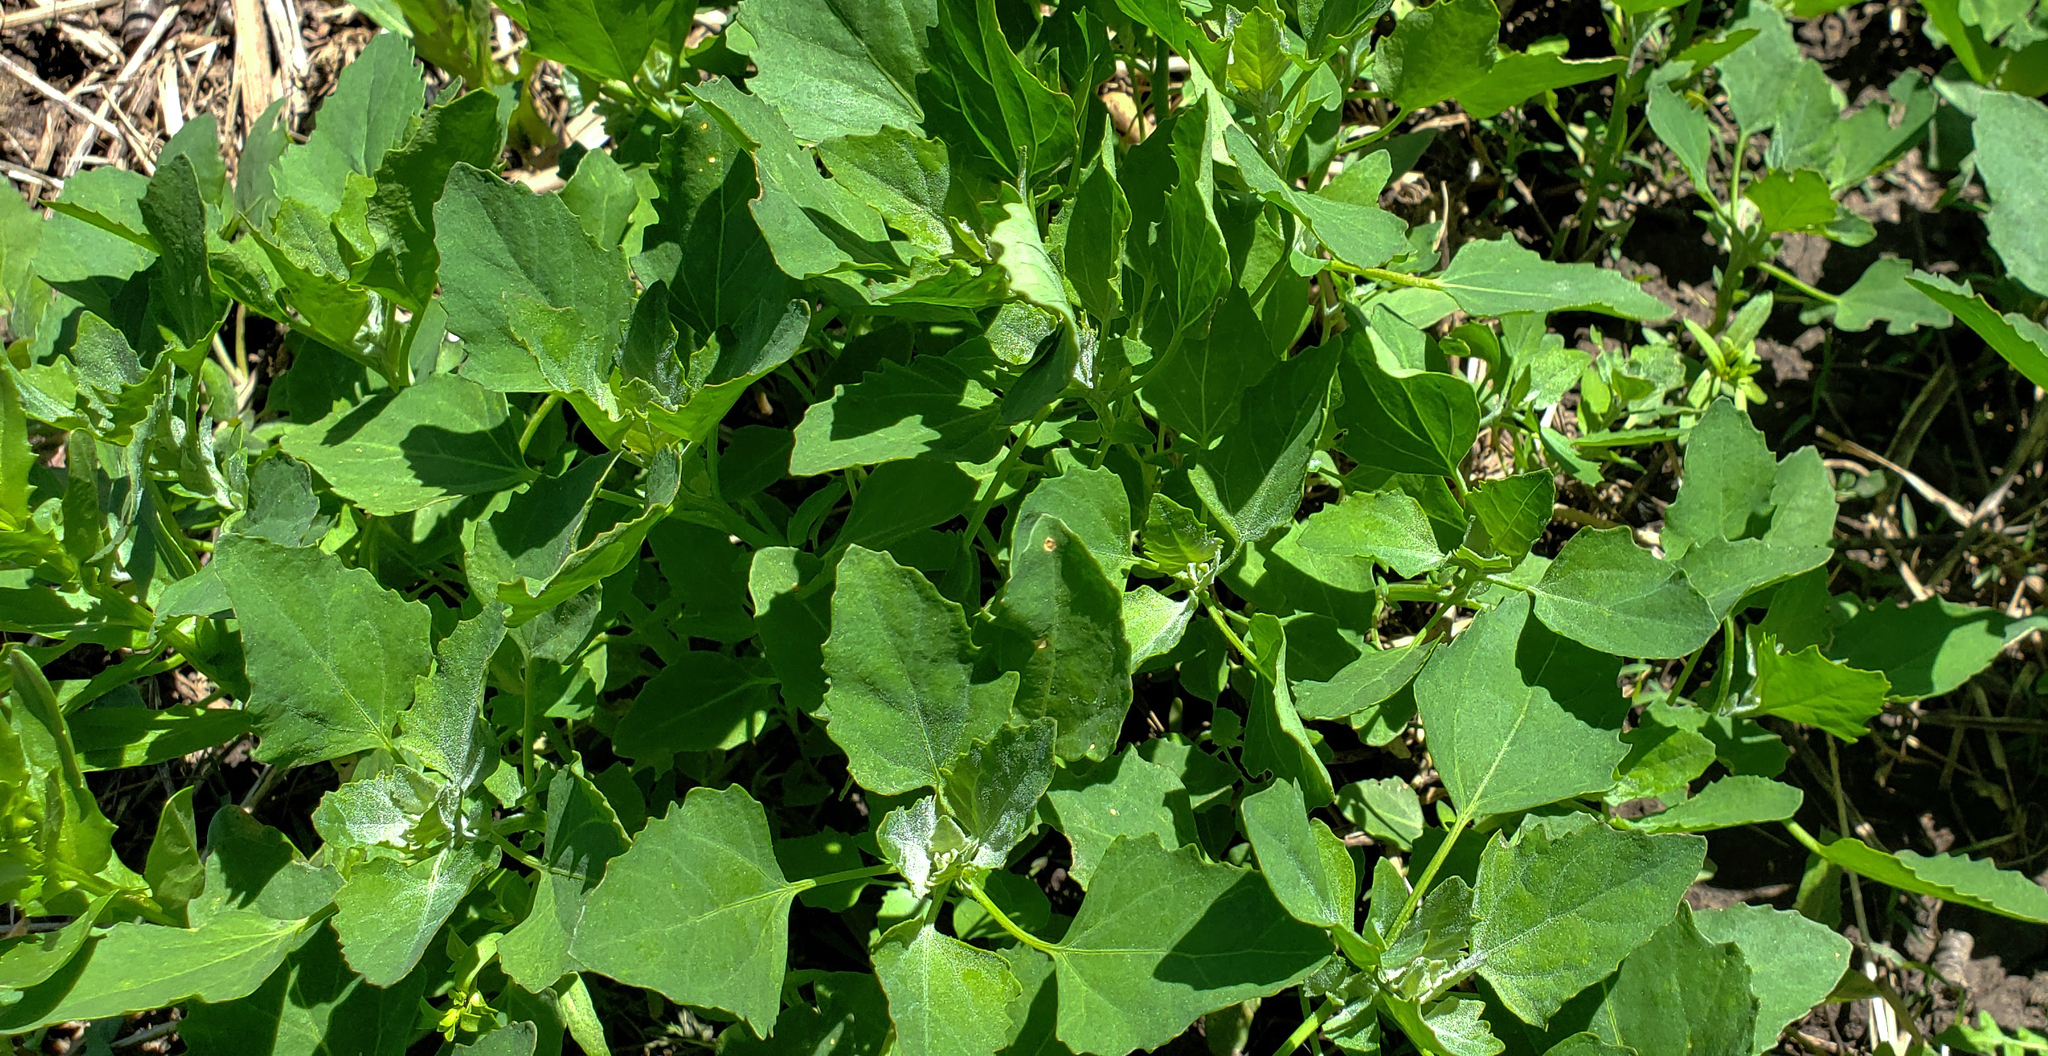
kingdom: Plantae
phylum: Tracheophyta
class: Magnoliopsida
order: Caryophyllales
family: Amaranthaceae
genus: Chenopodium
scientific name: Chenopodium album
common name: Fat-hen
